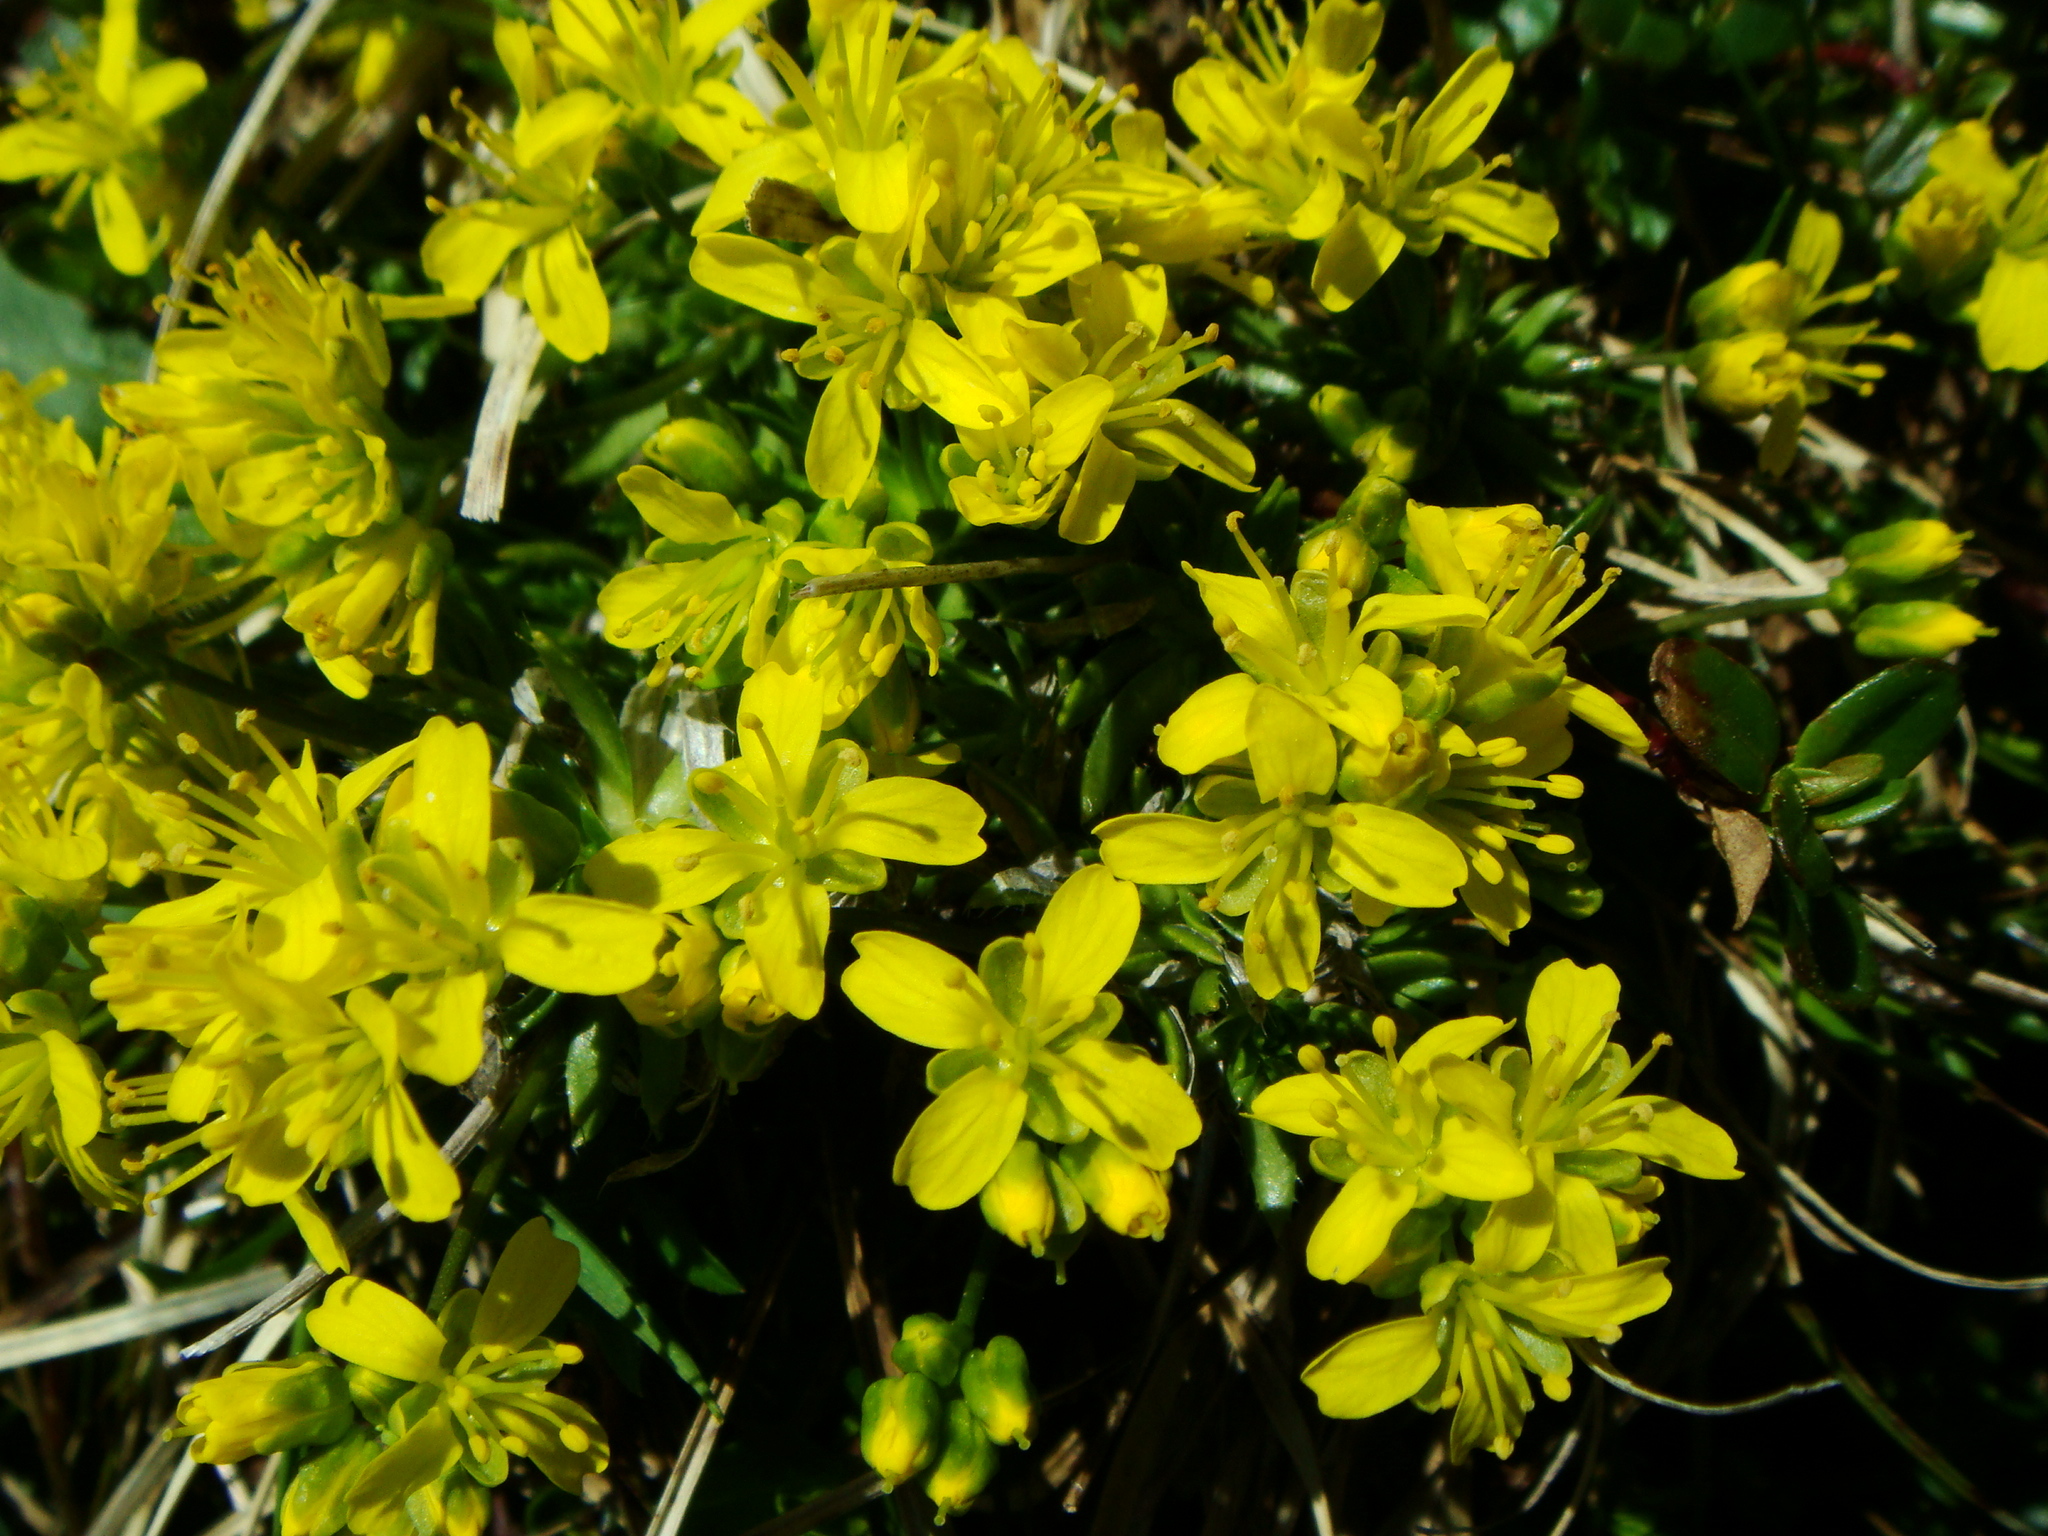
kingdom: Plantae
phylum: Tracheophyta
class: Magnoliopsida
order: Brassicales
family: Brassicaceae
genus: Draba
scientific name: Draba aizoides
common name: Yellow whitlowgrass
